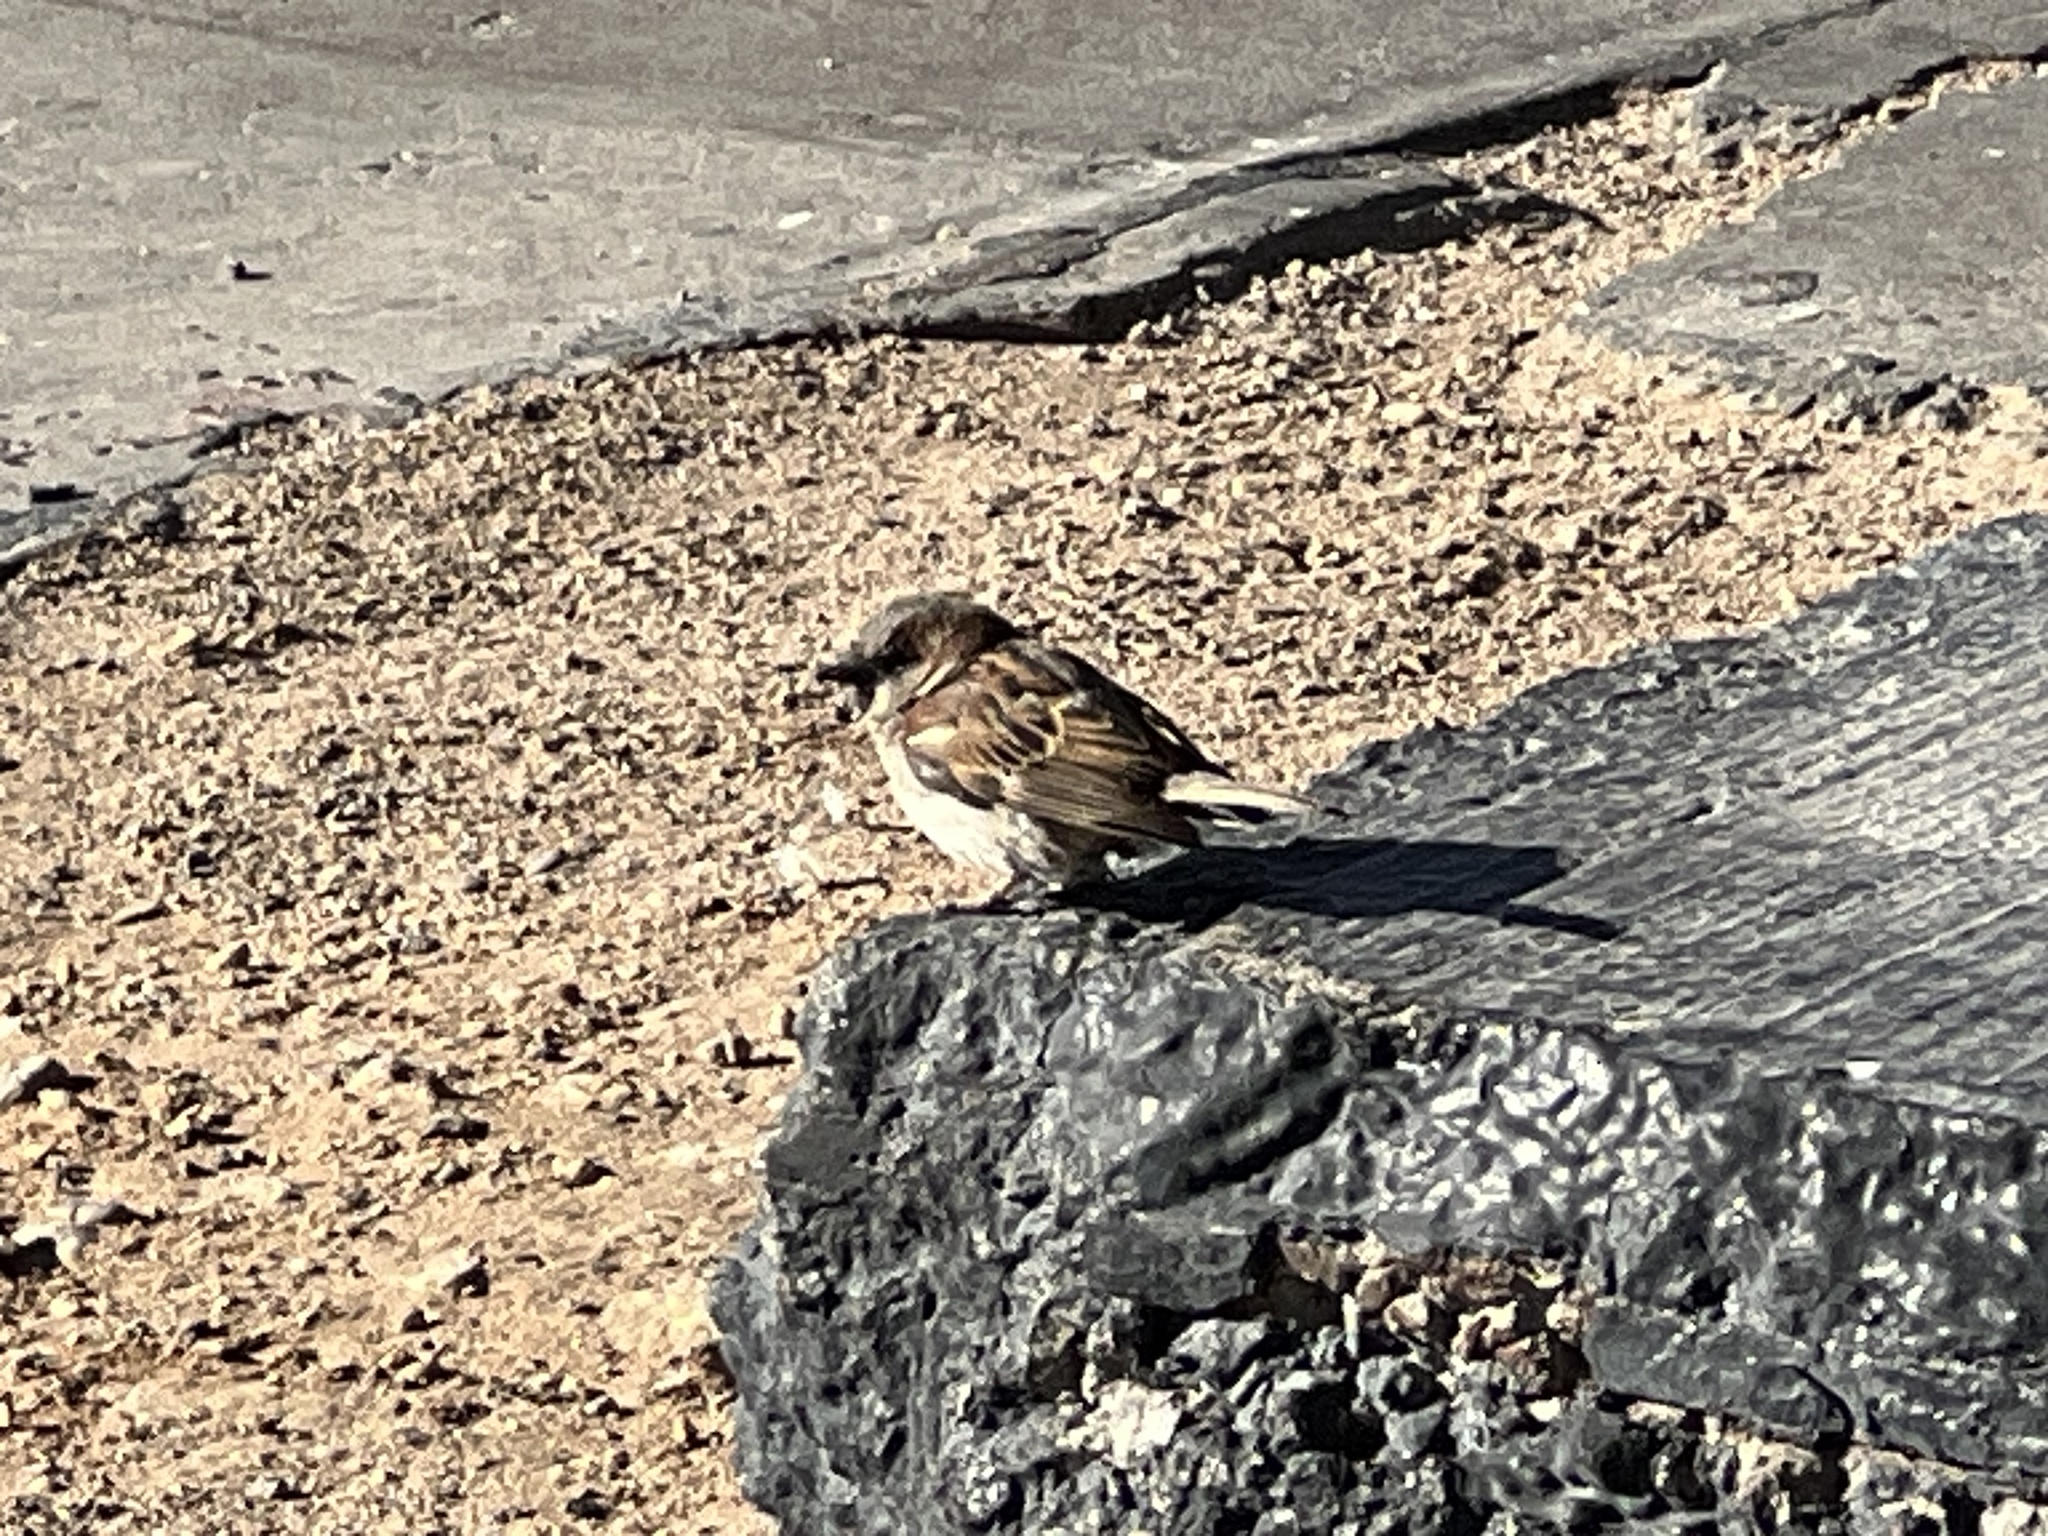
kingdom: Animalia
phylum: Chordata
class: Aves
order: Passeriformes
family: Passeridae
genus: Passer
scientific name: Passer domesticus
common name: House sparrow
